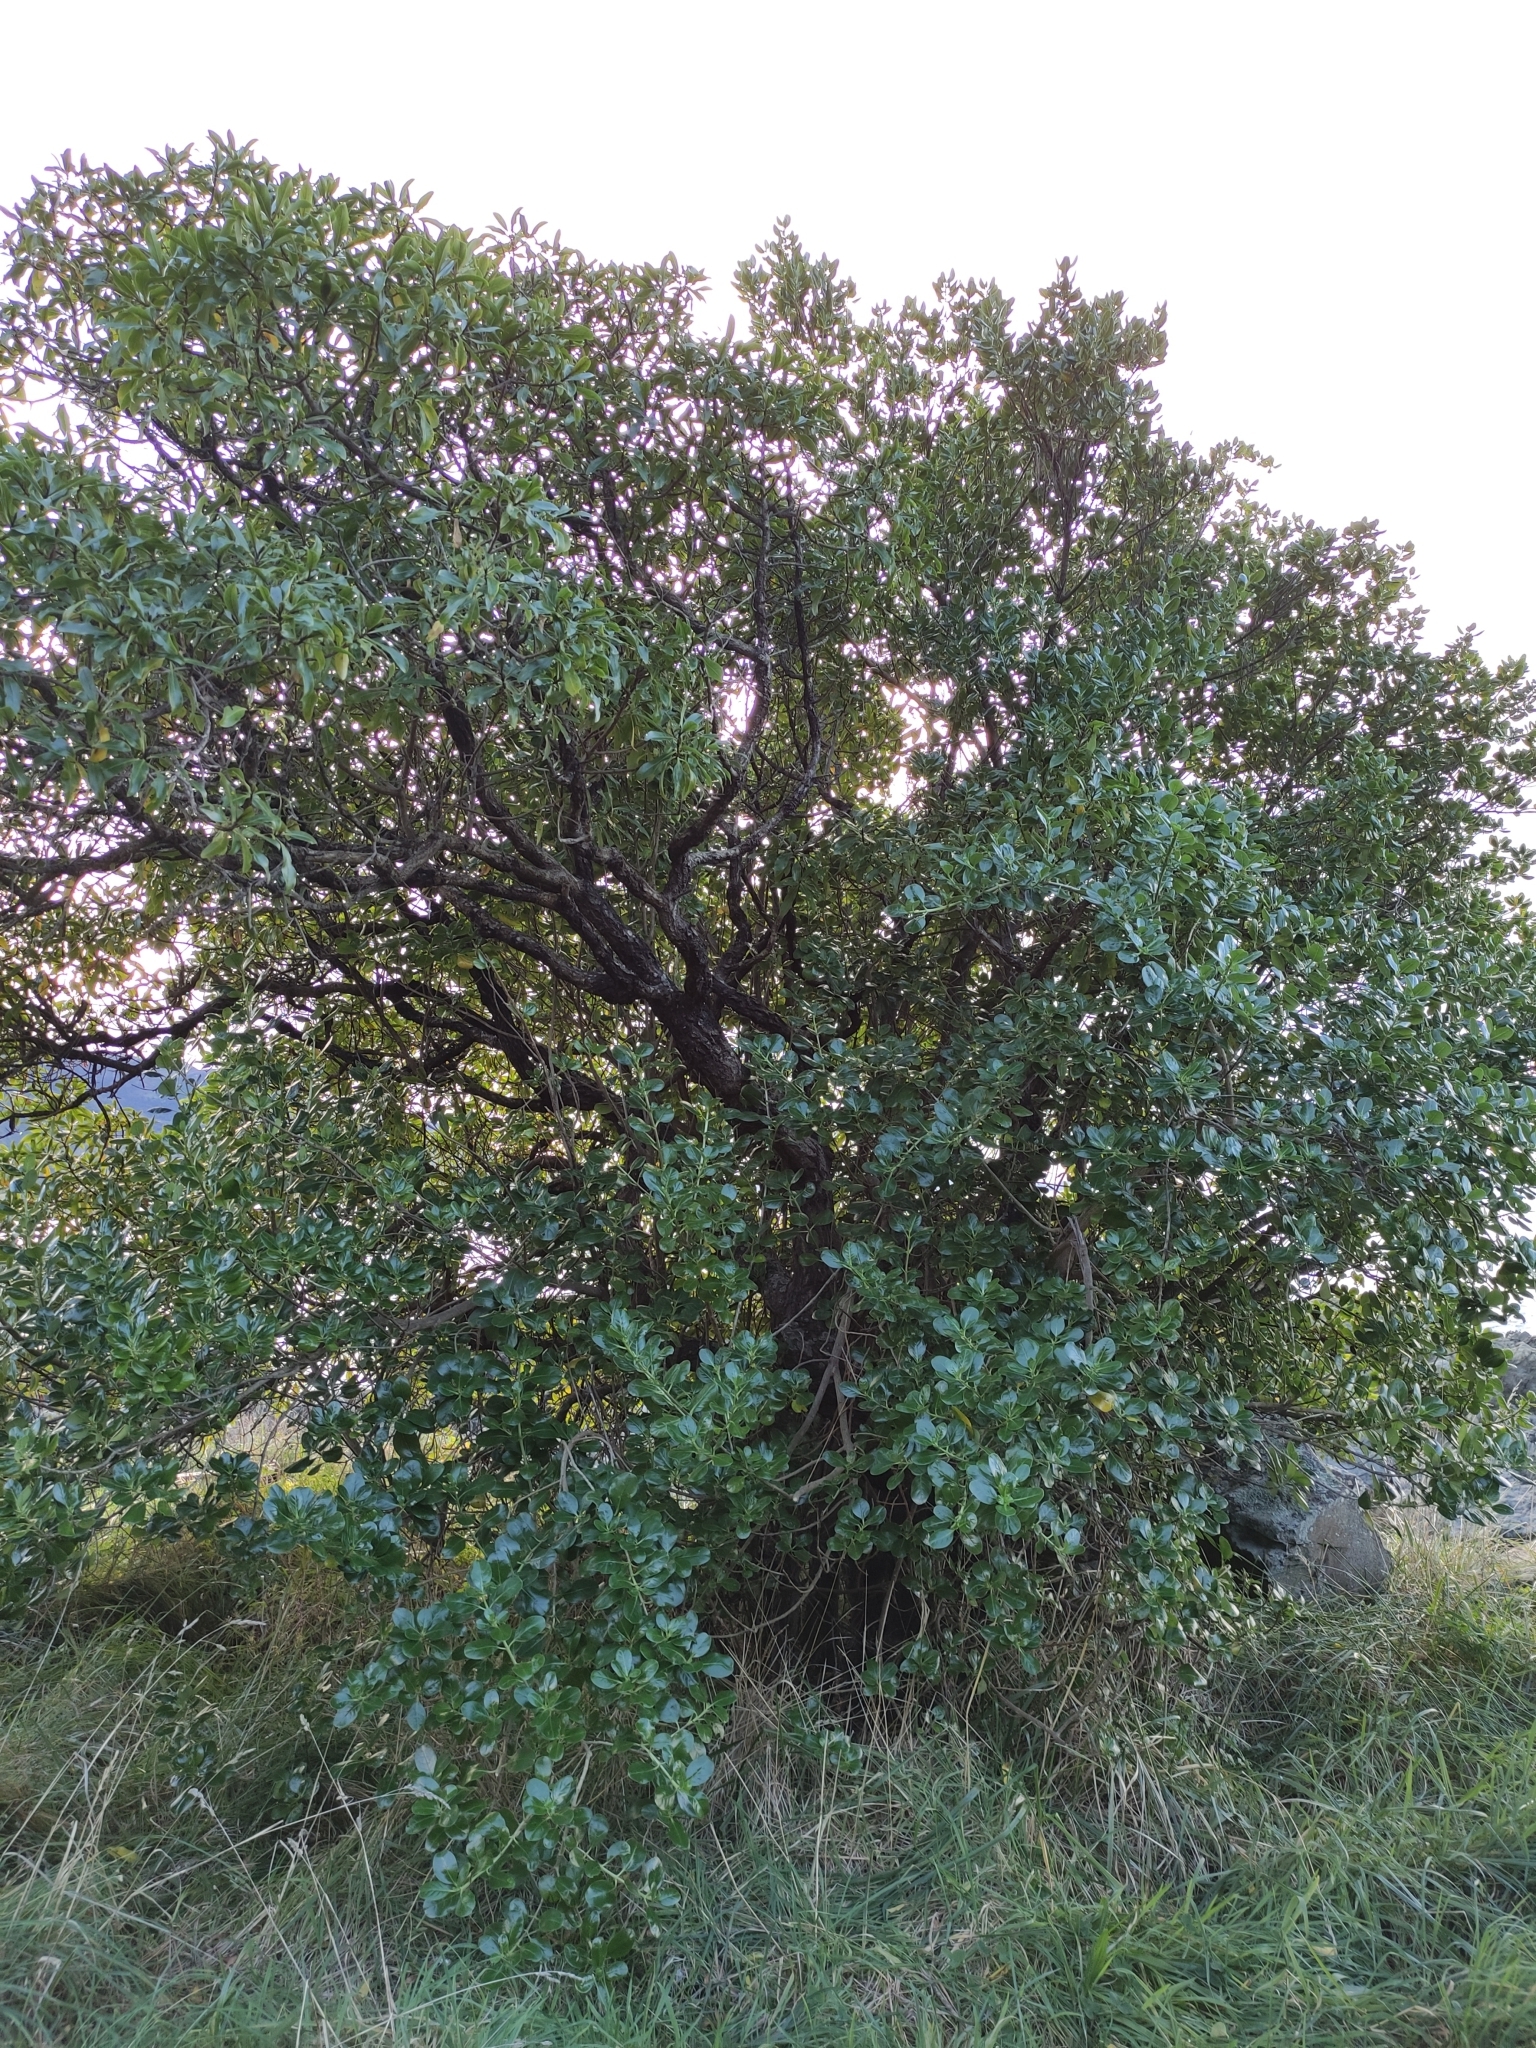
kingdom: Plantae
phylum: Tracheophyta
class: Magnoliopsida
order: Gentianales
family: Rubiaceae
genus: Coprosma
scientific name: Coprosma repens
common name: Tree bedstraw
